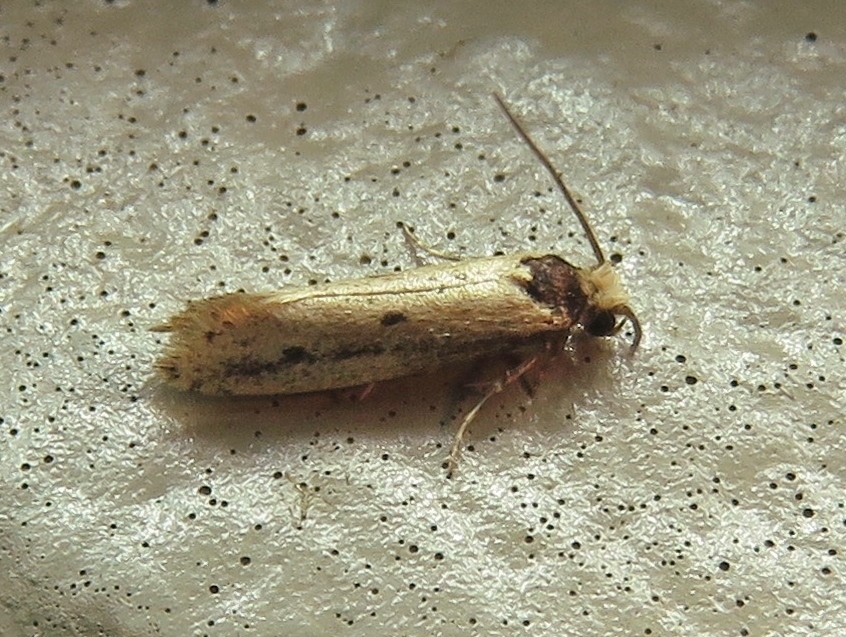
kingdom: Animalia
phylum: Arthropoda
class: Insecta
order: Lepidoptera
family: Tineidae
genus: Tinea
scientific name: Tinea apicimaculella
